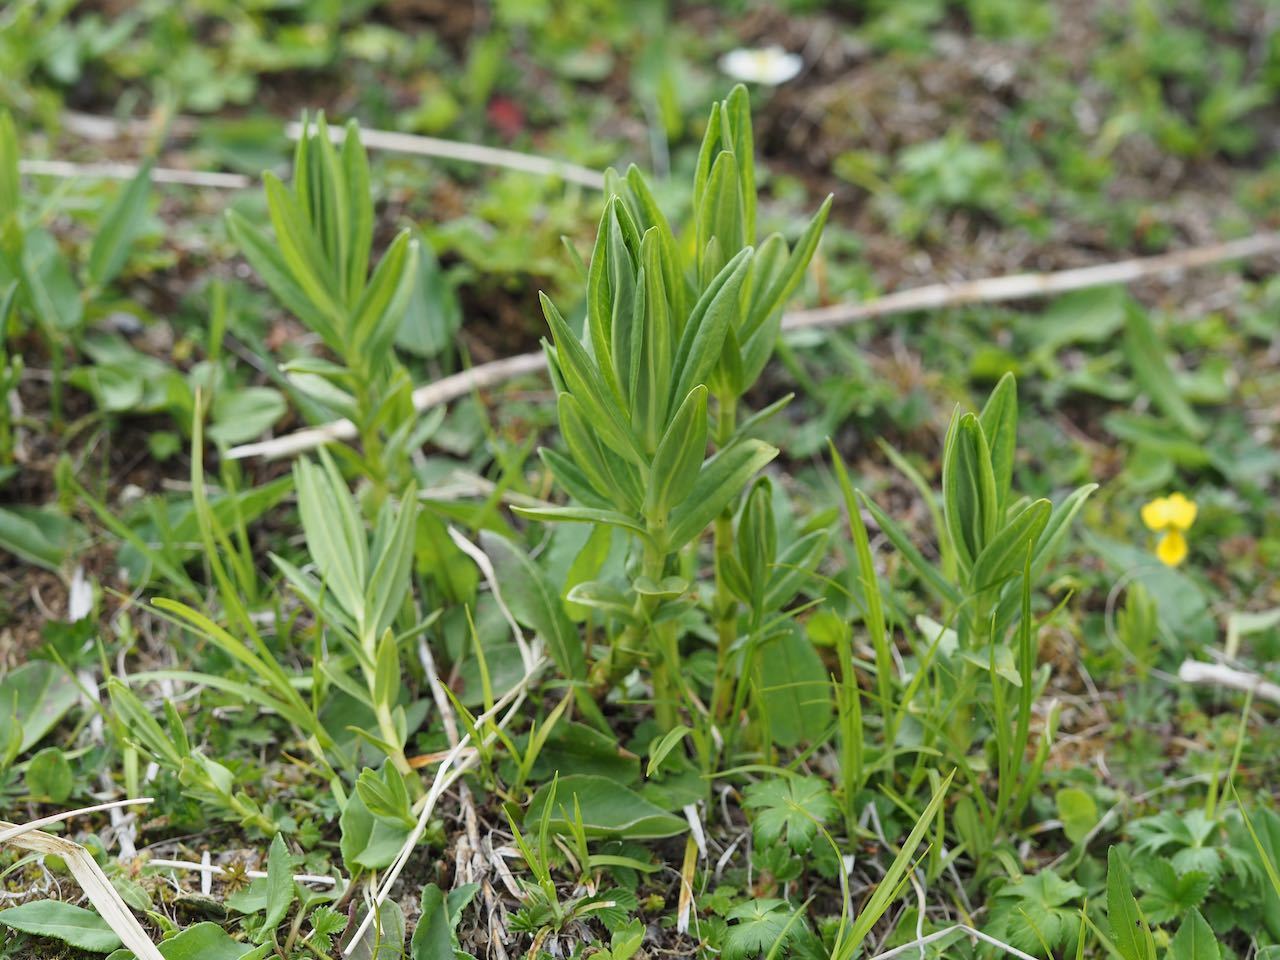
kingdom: Plantae
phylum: Tracheophyta
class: Liliopsida
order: Asparagales
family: Orchidaceae
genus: Dactylorhiza
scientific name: Dactylorhiza aristata
